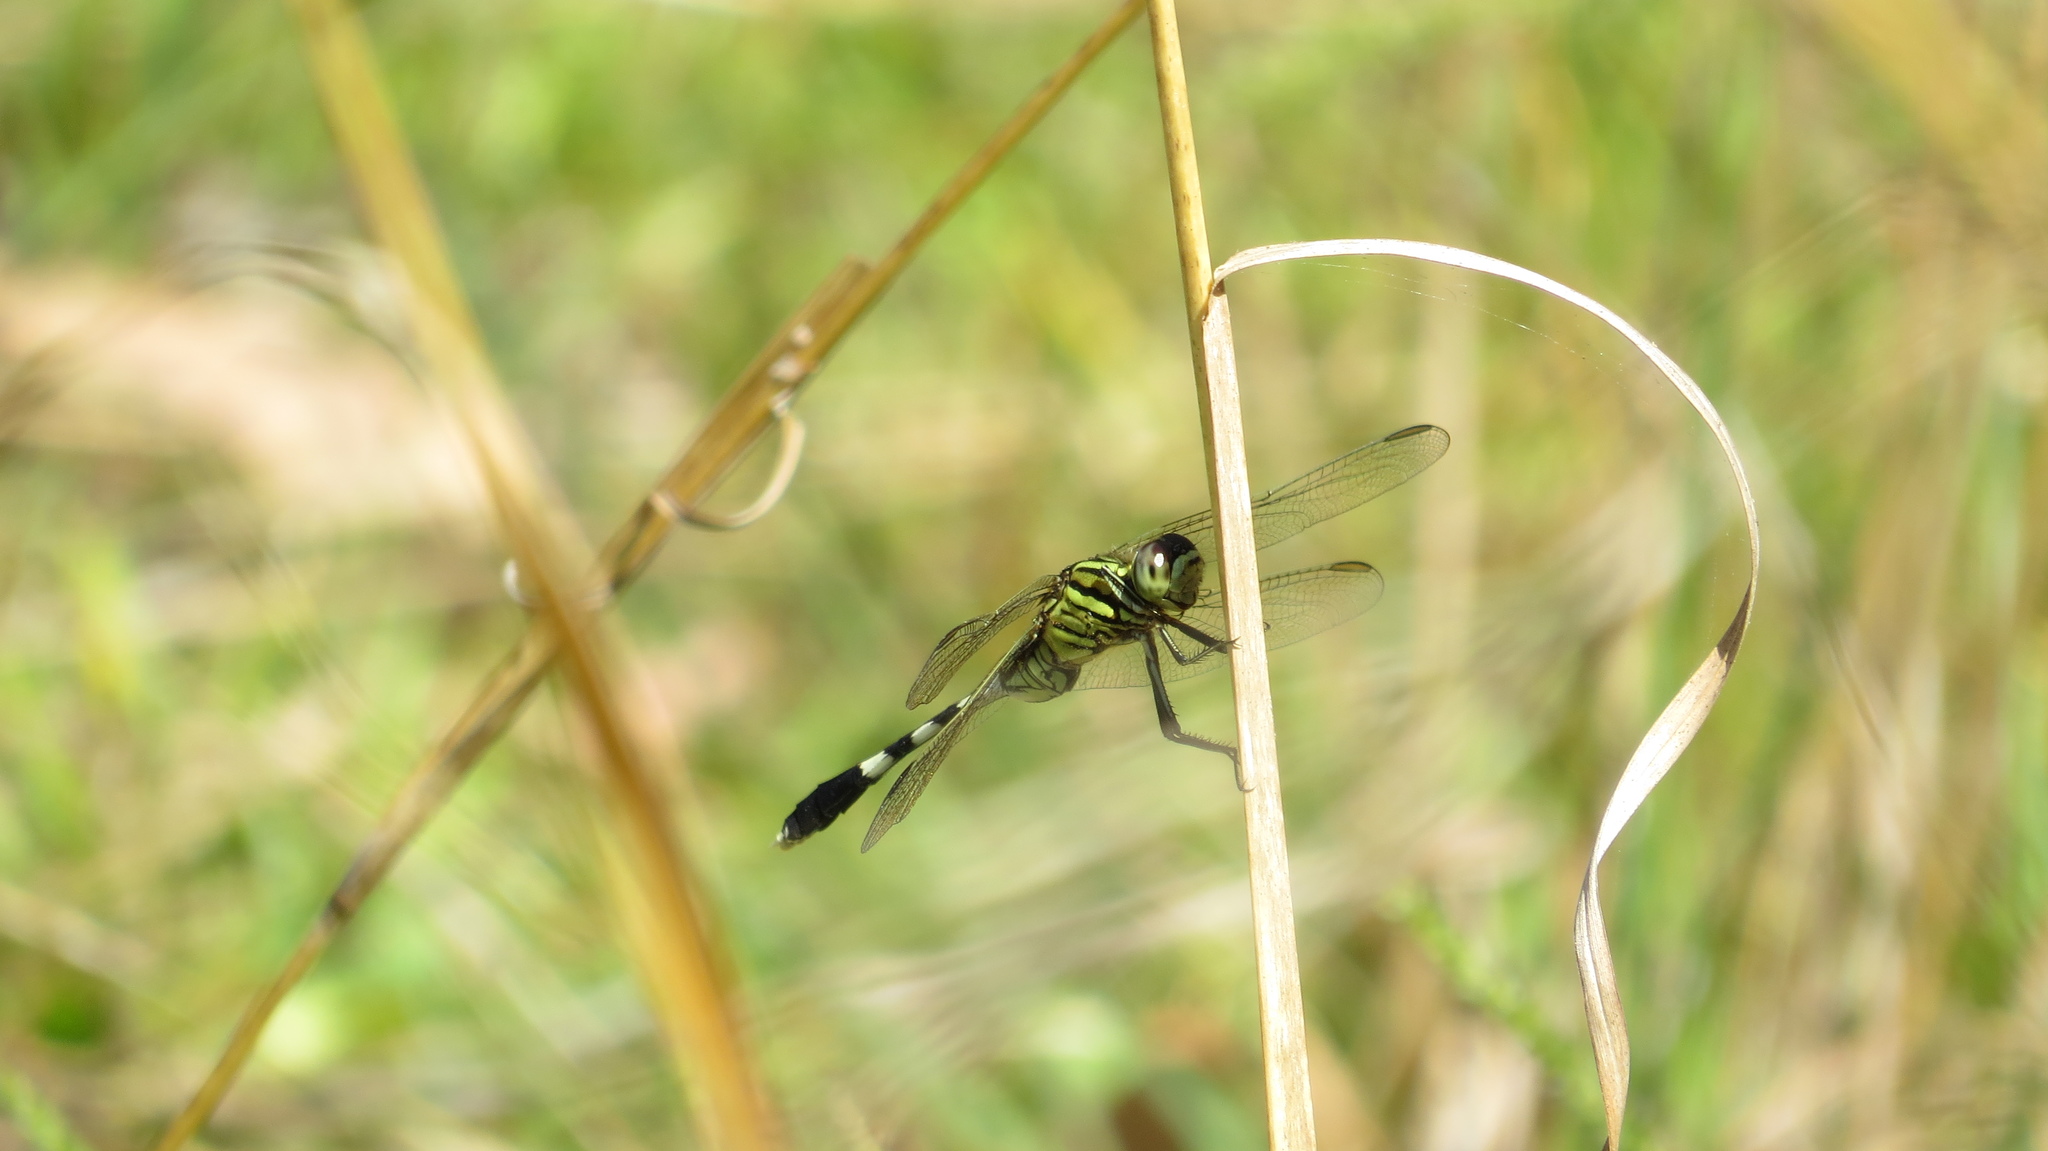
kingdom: Animalia
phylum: Arthropoda
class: Insecta
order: Odonata
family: Libellulidae
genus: Orthetrum
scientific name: Orthetrum sabina
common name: Slender skimmer
